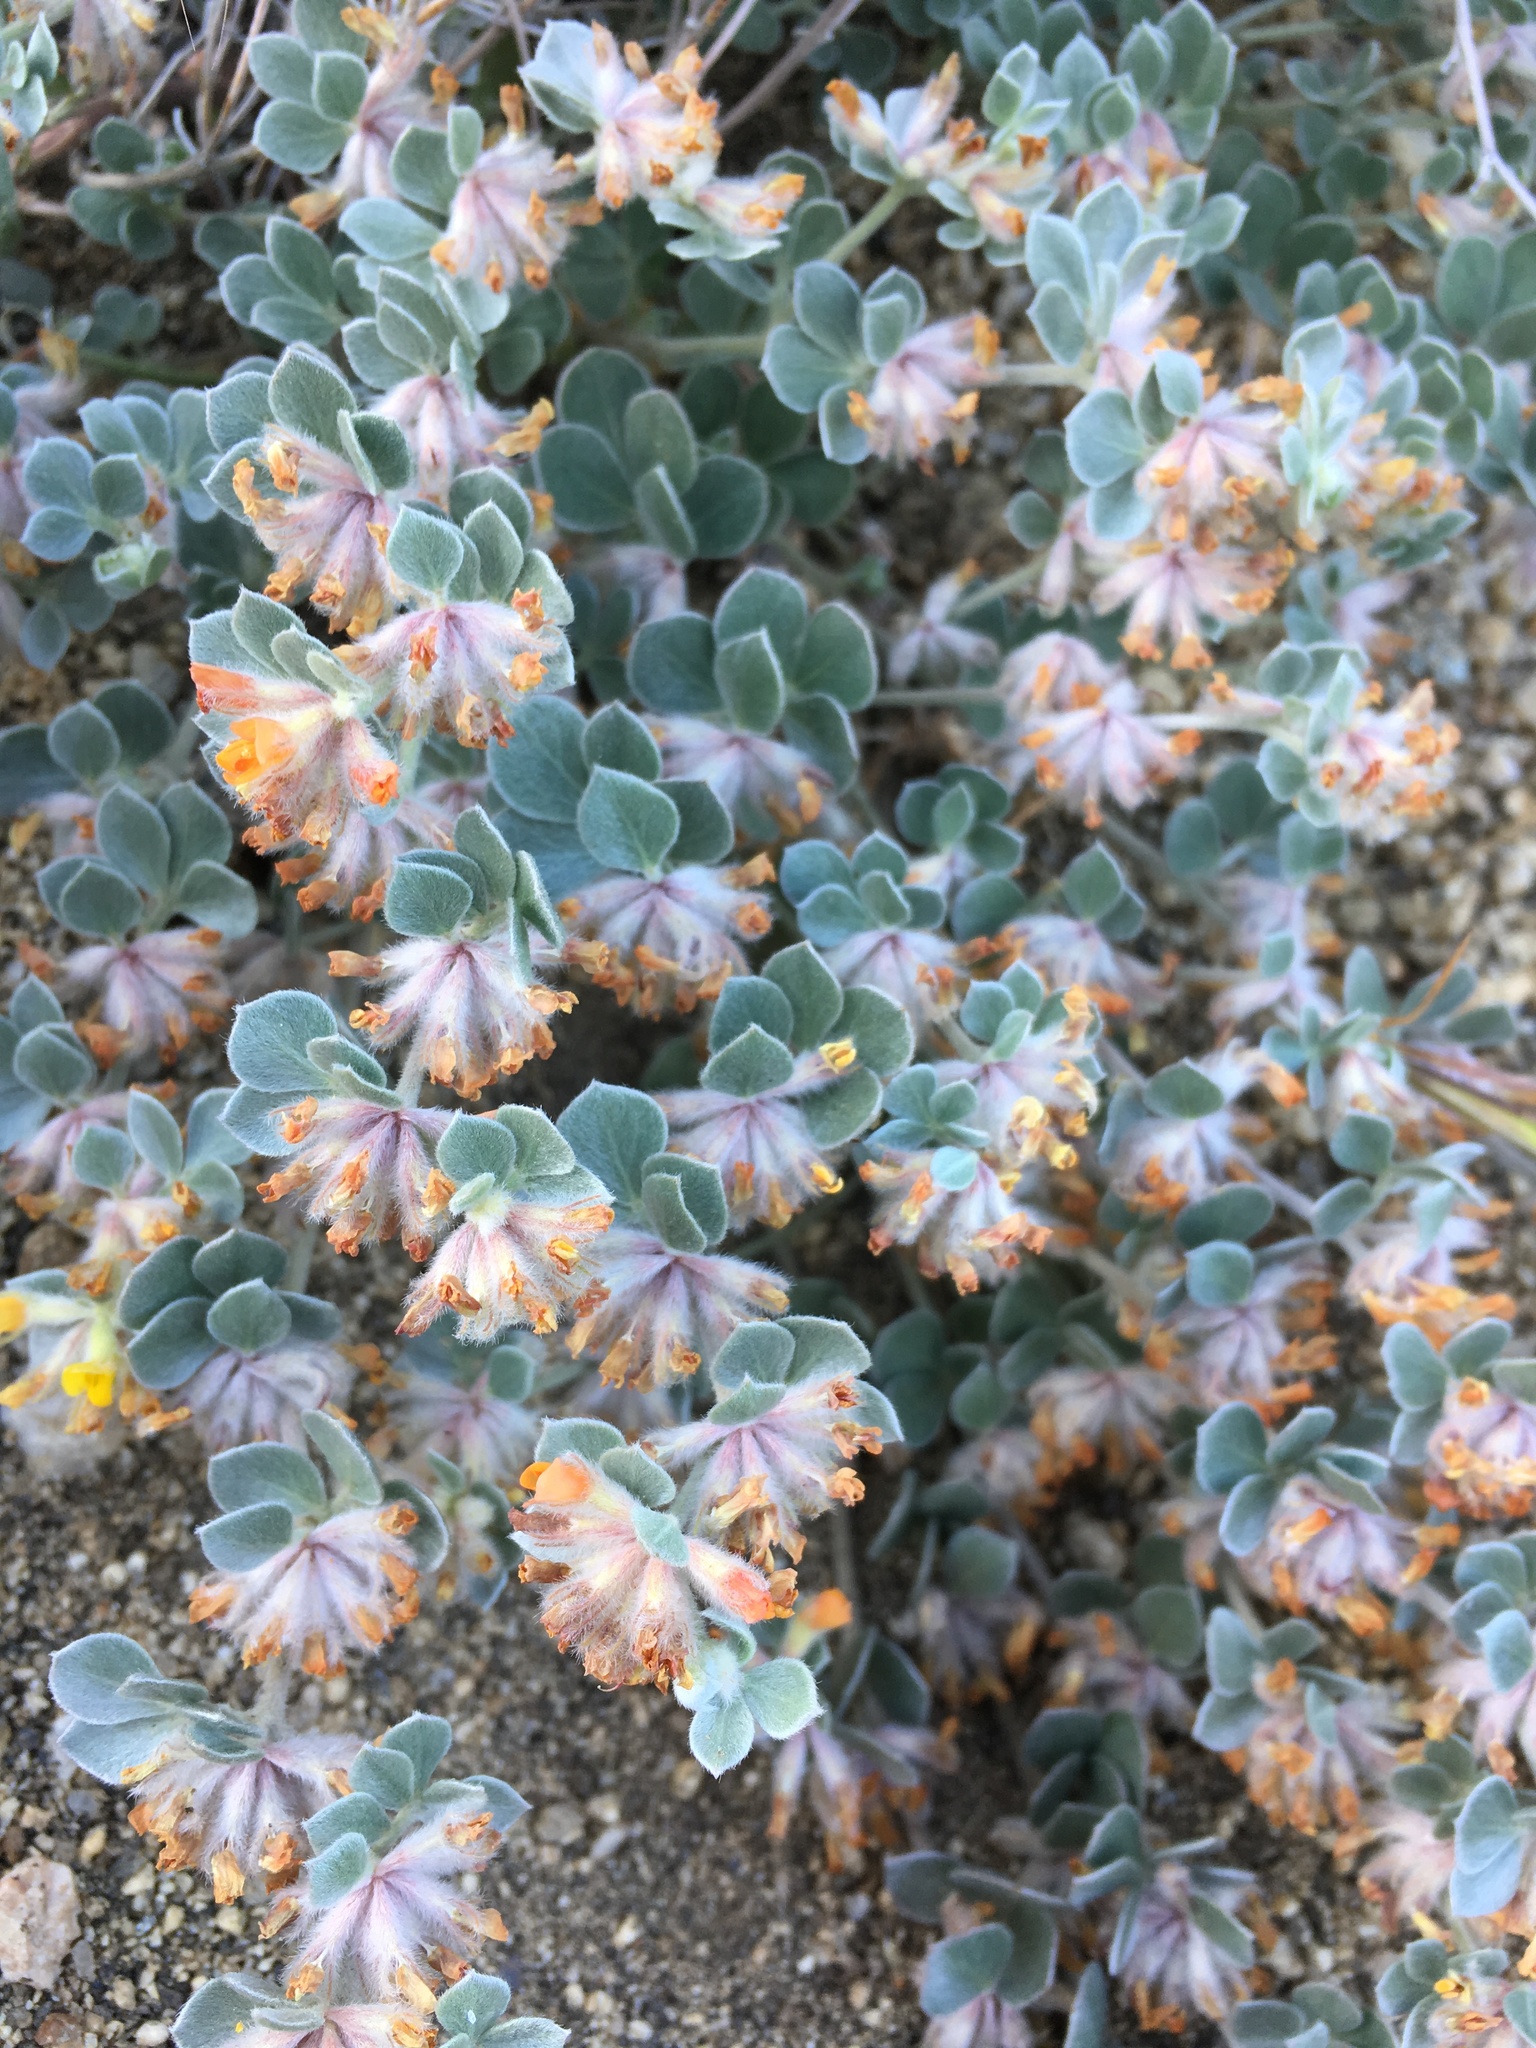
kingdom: Plantae
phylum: Tracheophyta
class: Magnoliopsida
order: Fabales
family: Fabaceae
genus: Acmispon
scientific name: Acmispon argophyllus
